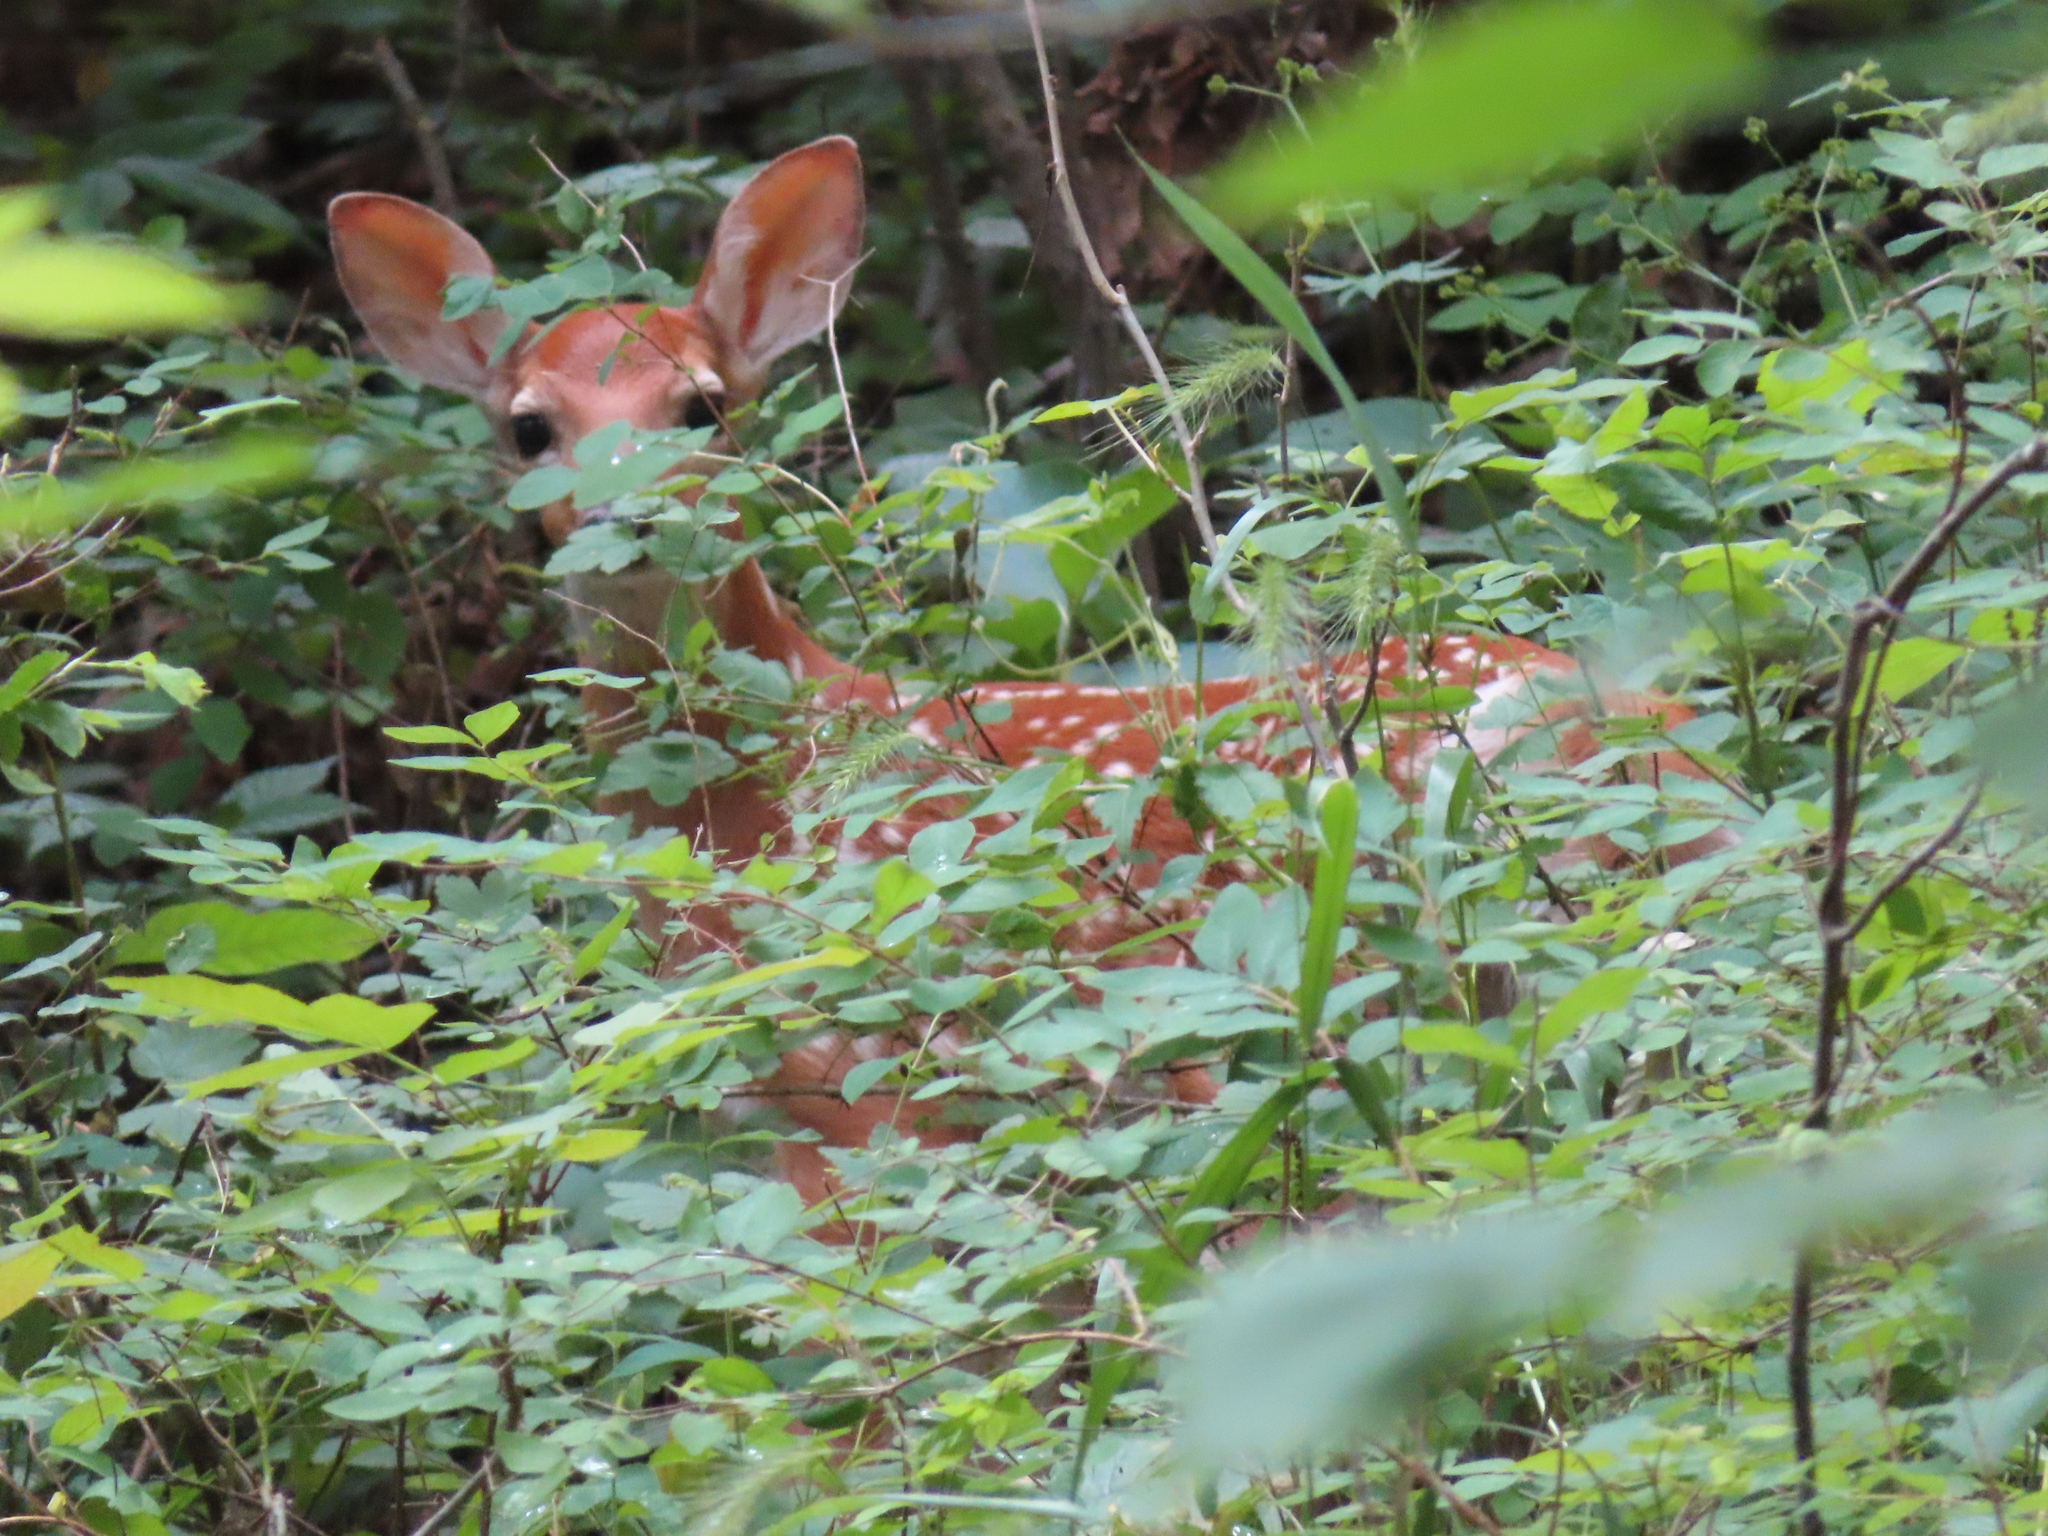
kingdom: Animalia
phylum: Chordata
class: Mammalia
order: Artiodactyla
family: Cervidae
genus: Odocoileus
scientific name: Odocoileus virginianus
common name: White-tailed deer
